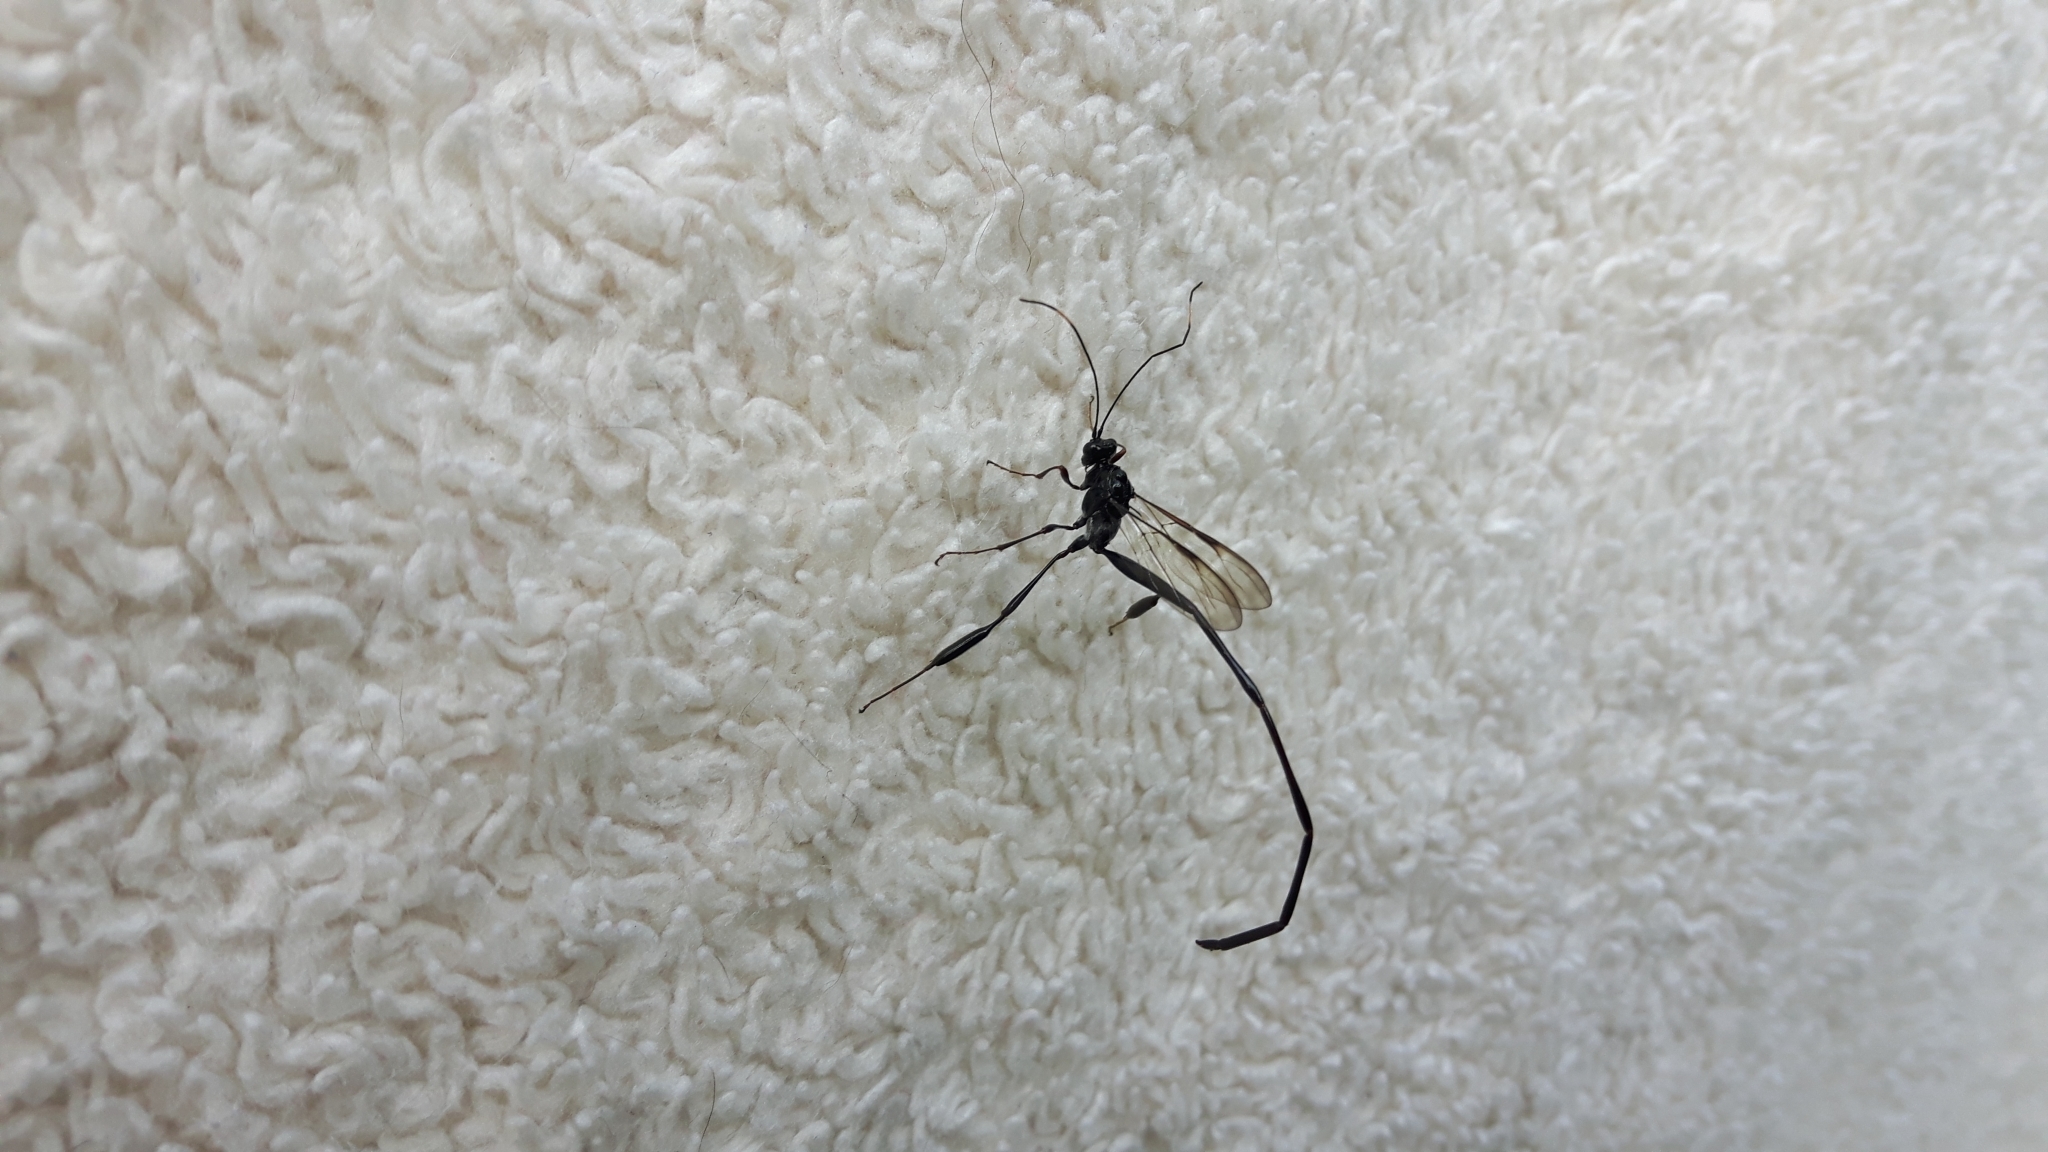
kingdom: Animalia
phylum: Arthropoda
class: Insecta
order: Hymenoptera
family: Pelecinidae
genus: Pelecinus
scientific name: Pelecinus polyturator
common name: American pelecinid wasp
